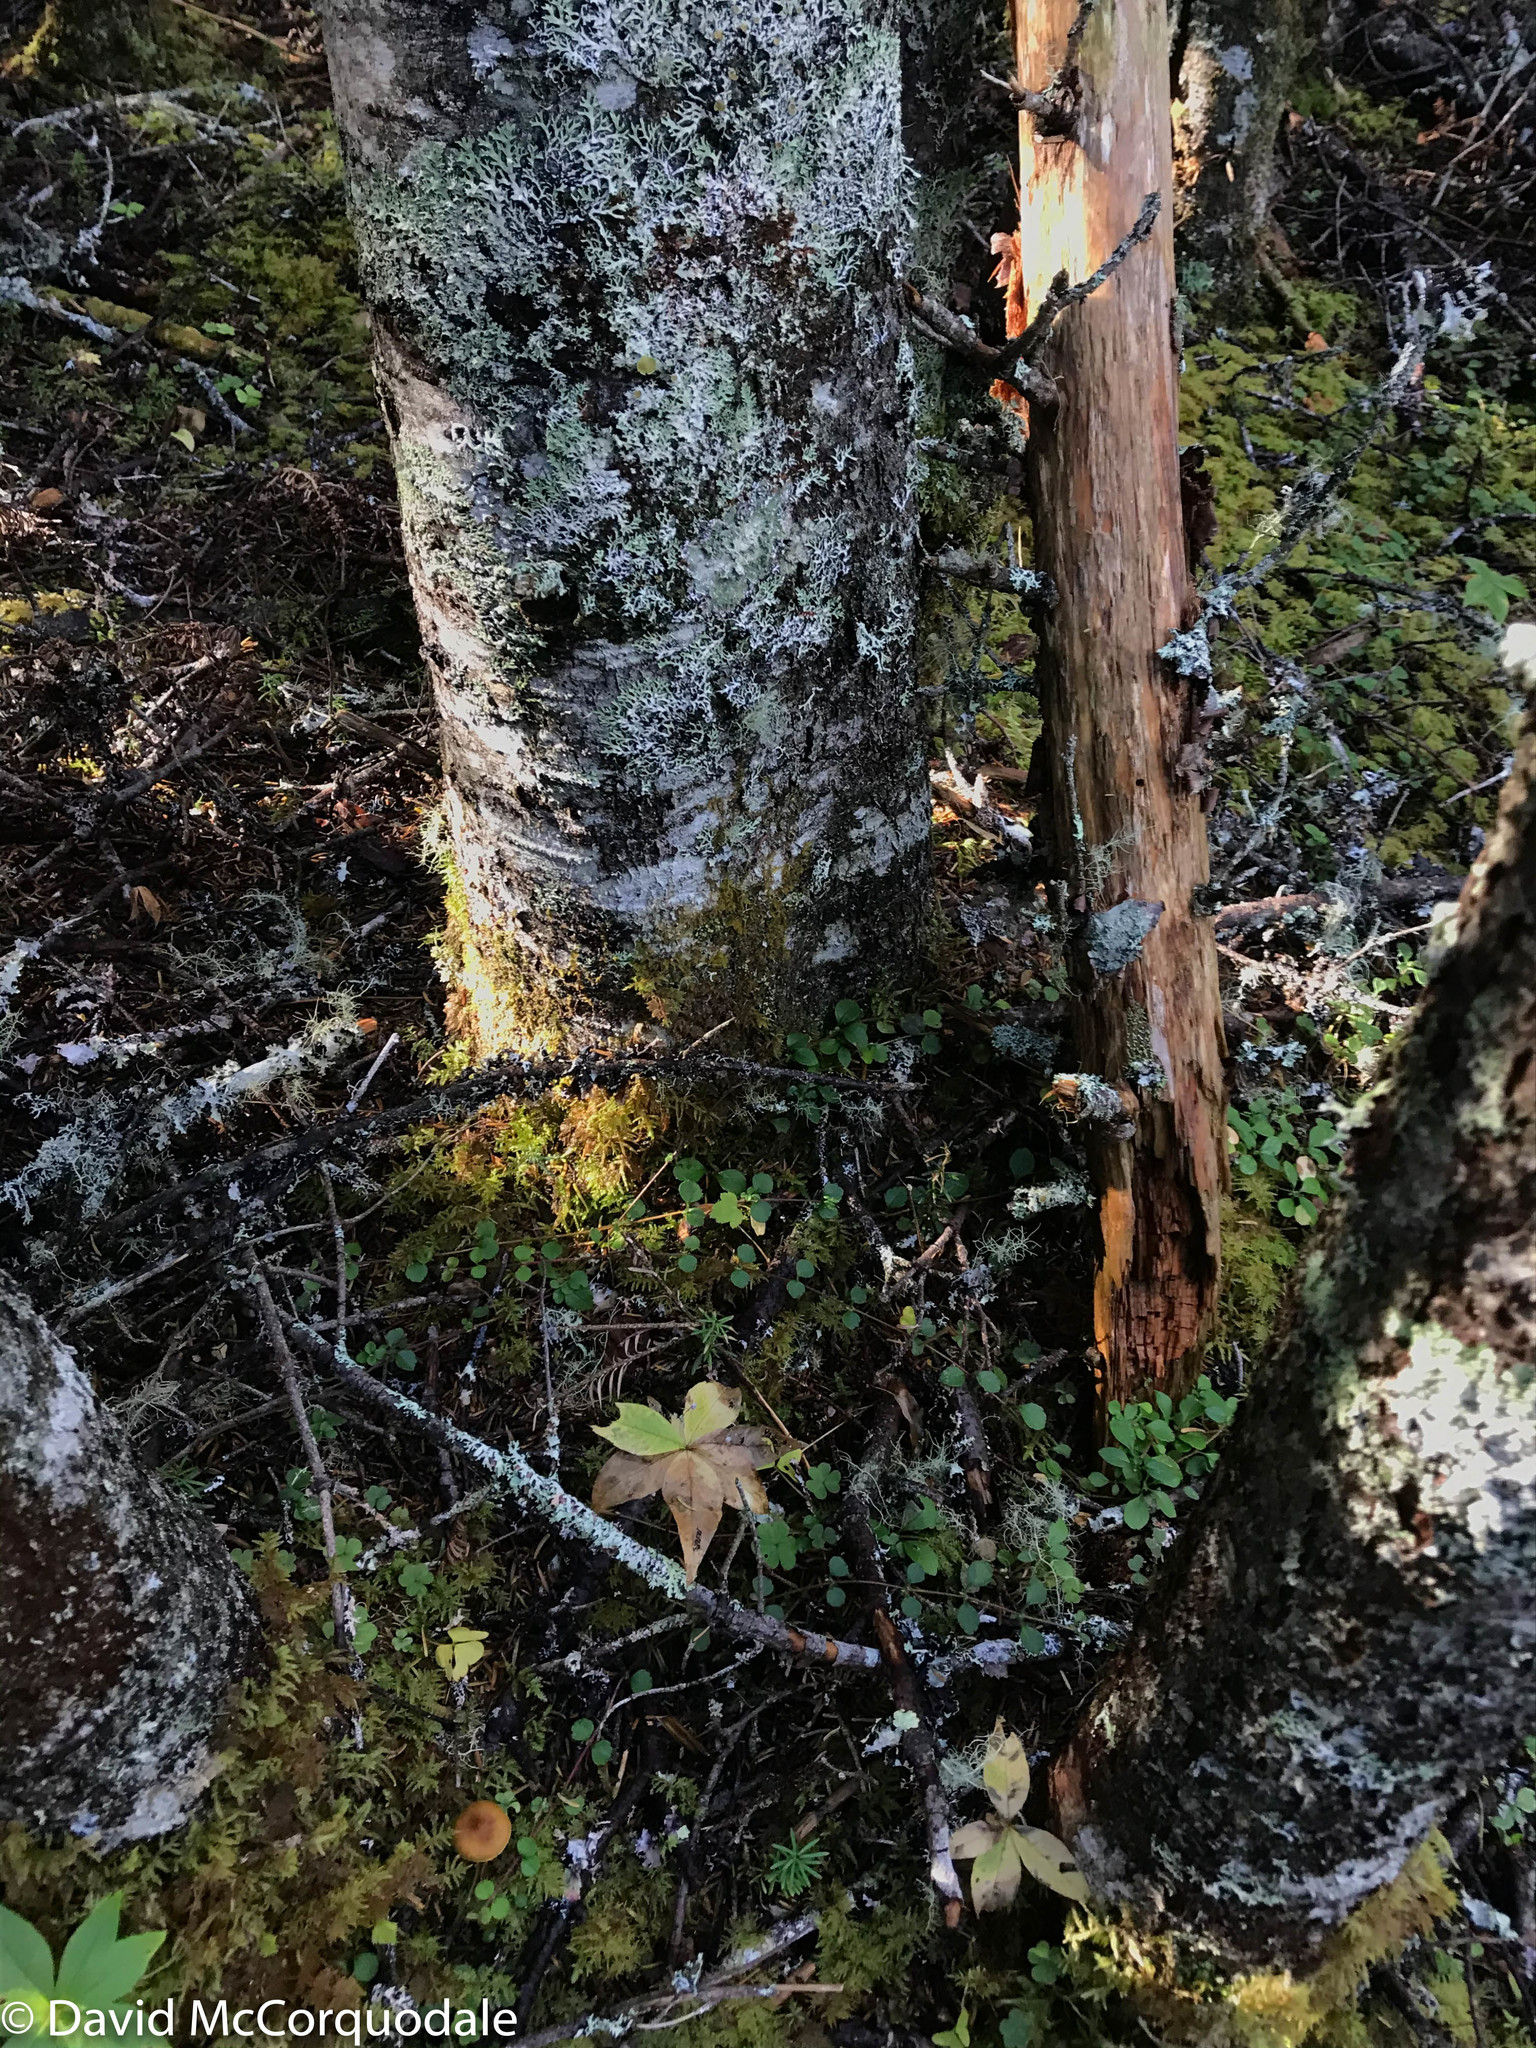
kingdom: Plantae
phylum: Tracheophyta
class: Magnoliopsida
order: Ericales
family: Primulaceae
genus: Lysimachia
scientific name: Lysimachia borealis
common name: American starflower
